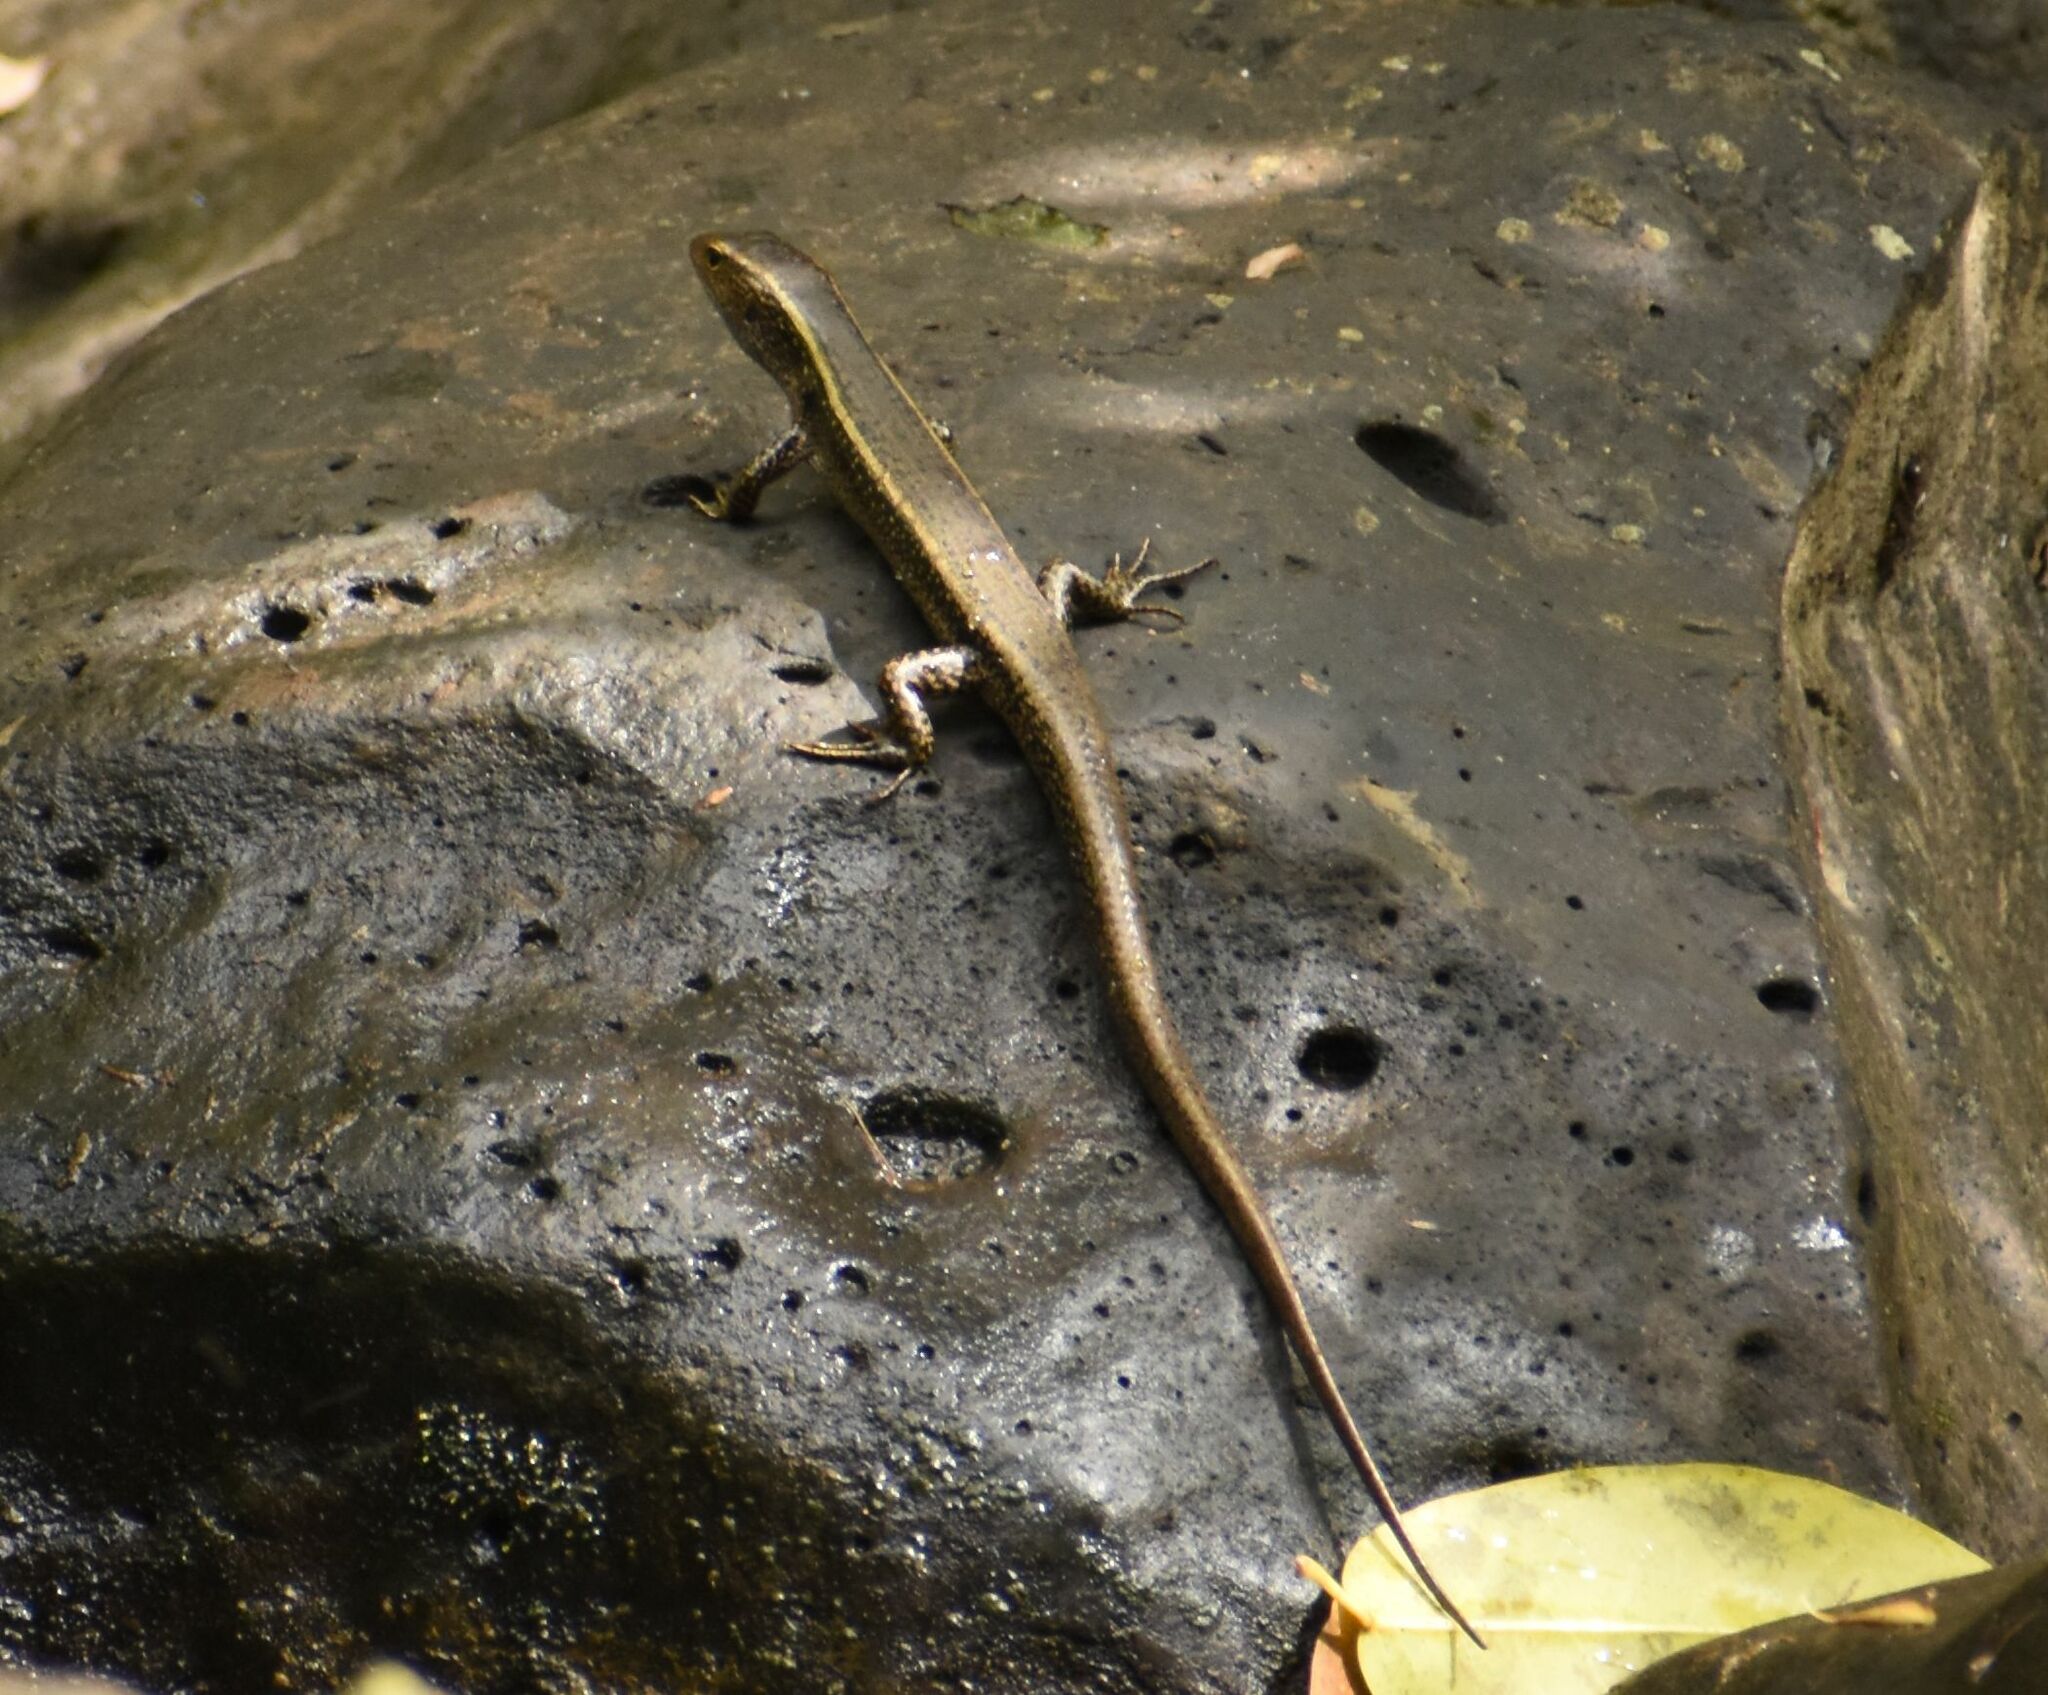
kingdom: Animalia
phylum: Chordata
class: Squamata
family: Scincidae
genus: Eulamprus
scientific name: Eulamprus quoyii
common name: Eastern water skink
